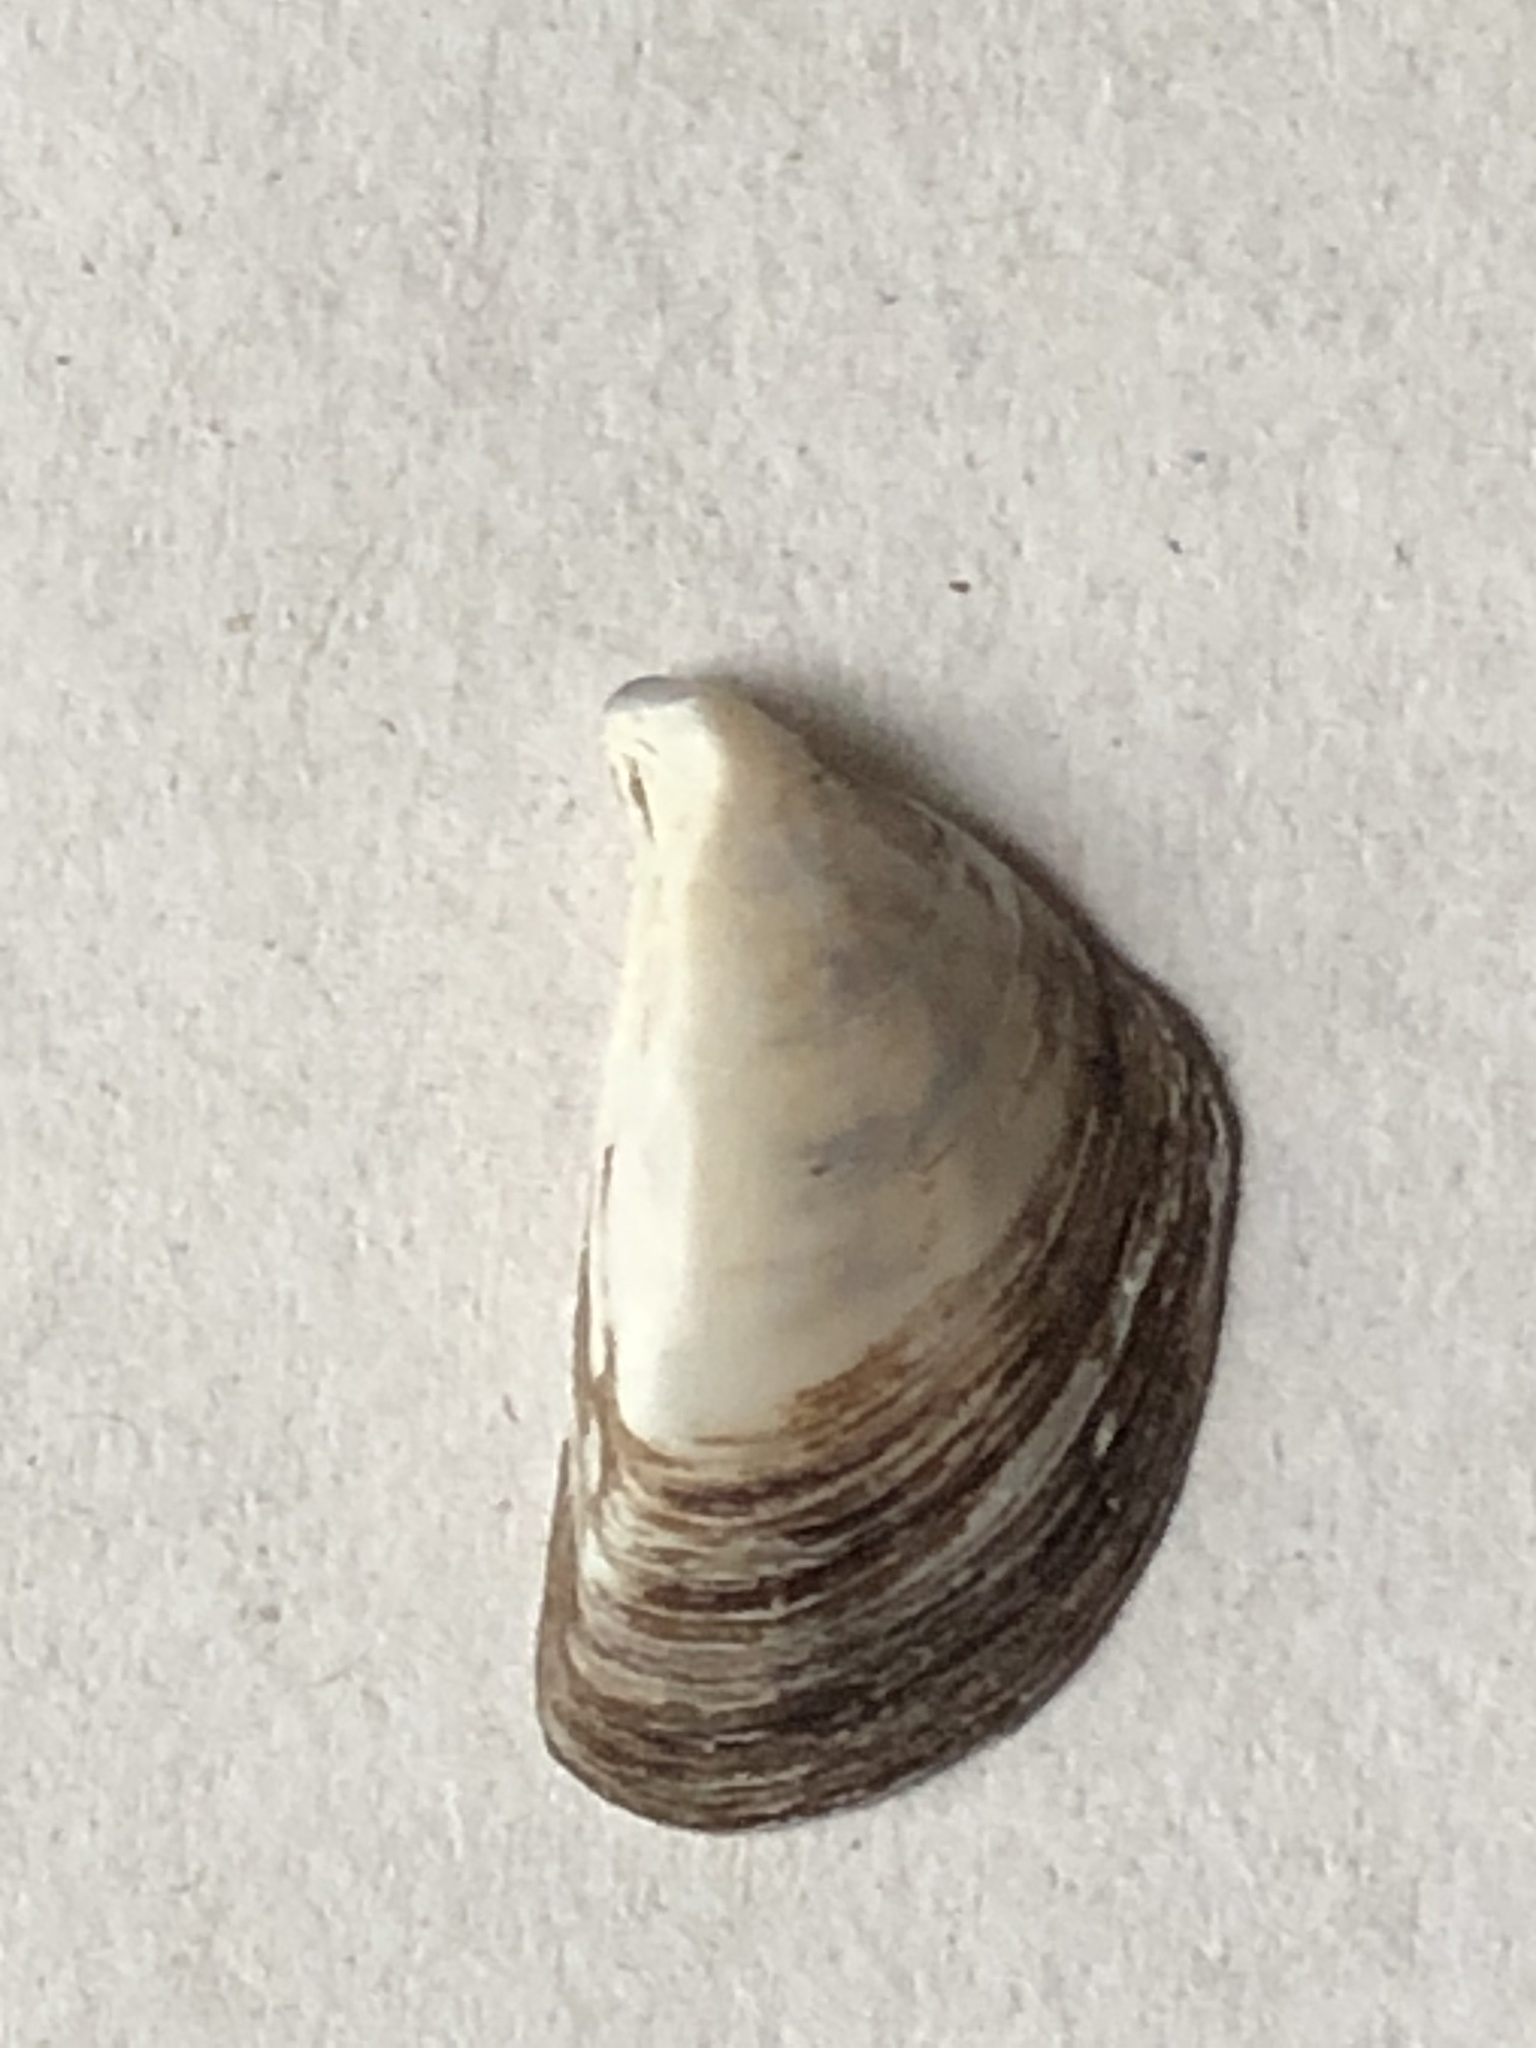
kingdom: Animalia
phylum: Mollusca
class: Bivalvia
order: Myida
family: Dreissenidae
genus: Dreissena
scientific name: Dreissena polymorpha
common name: Zebra mussel
